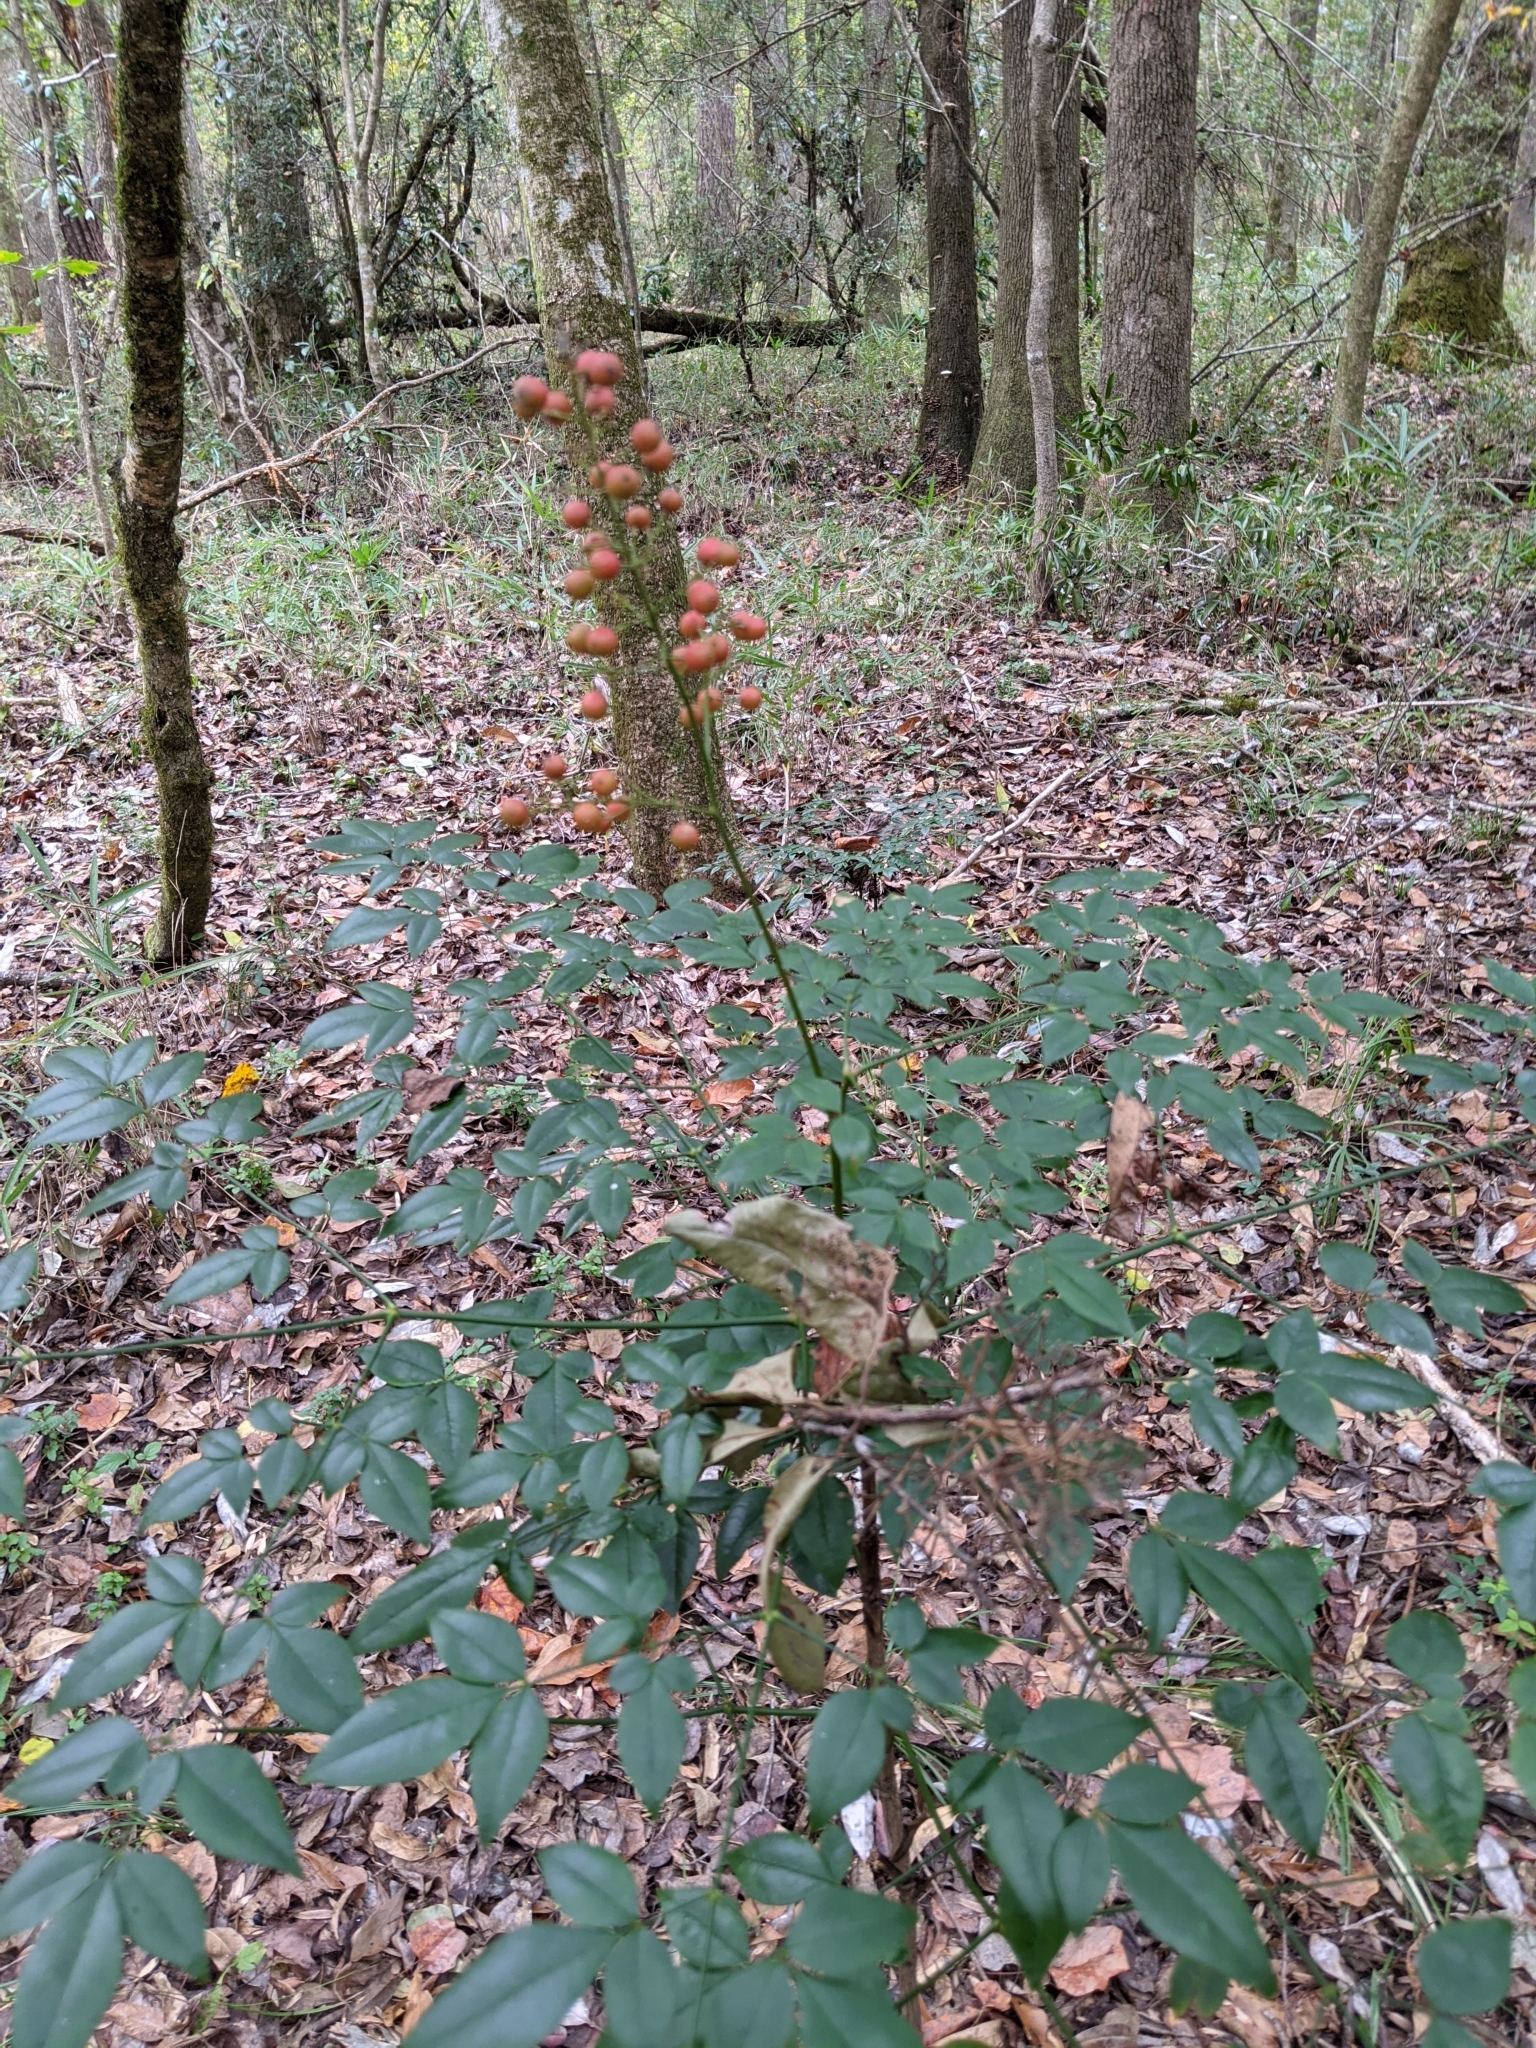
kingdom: Plantae
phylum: Tracheophyta
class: Magnoliopsida
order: Ranunculales
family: Berberidaceae
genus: Nandina
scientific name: Nandina domestica
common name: Sacred bamboo
